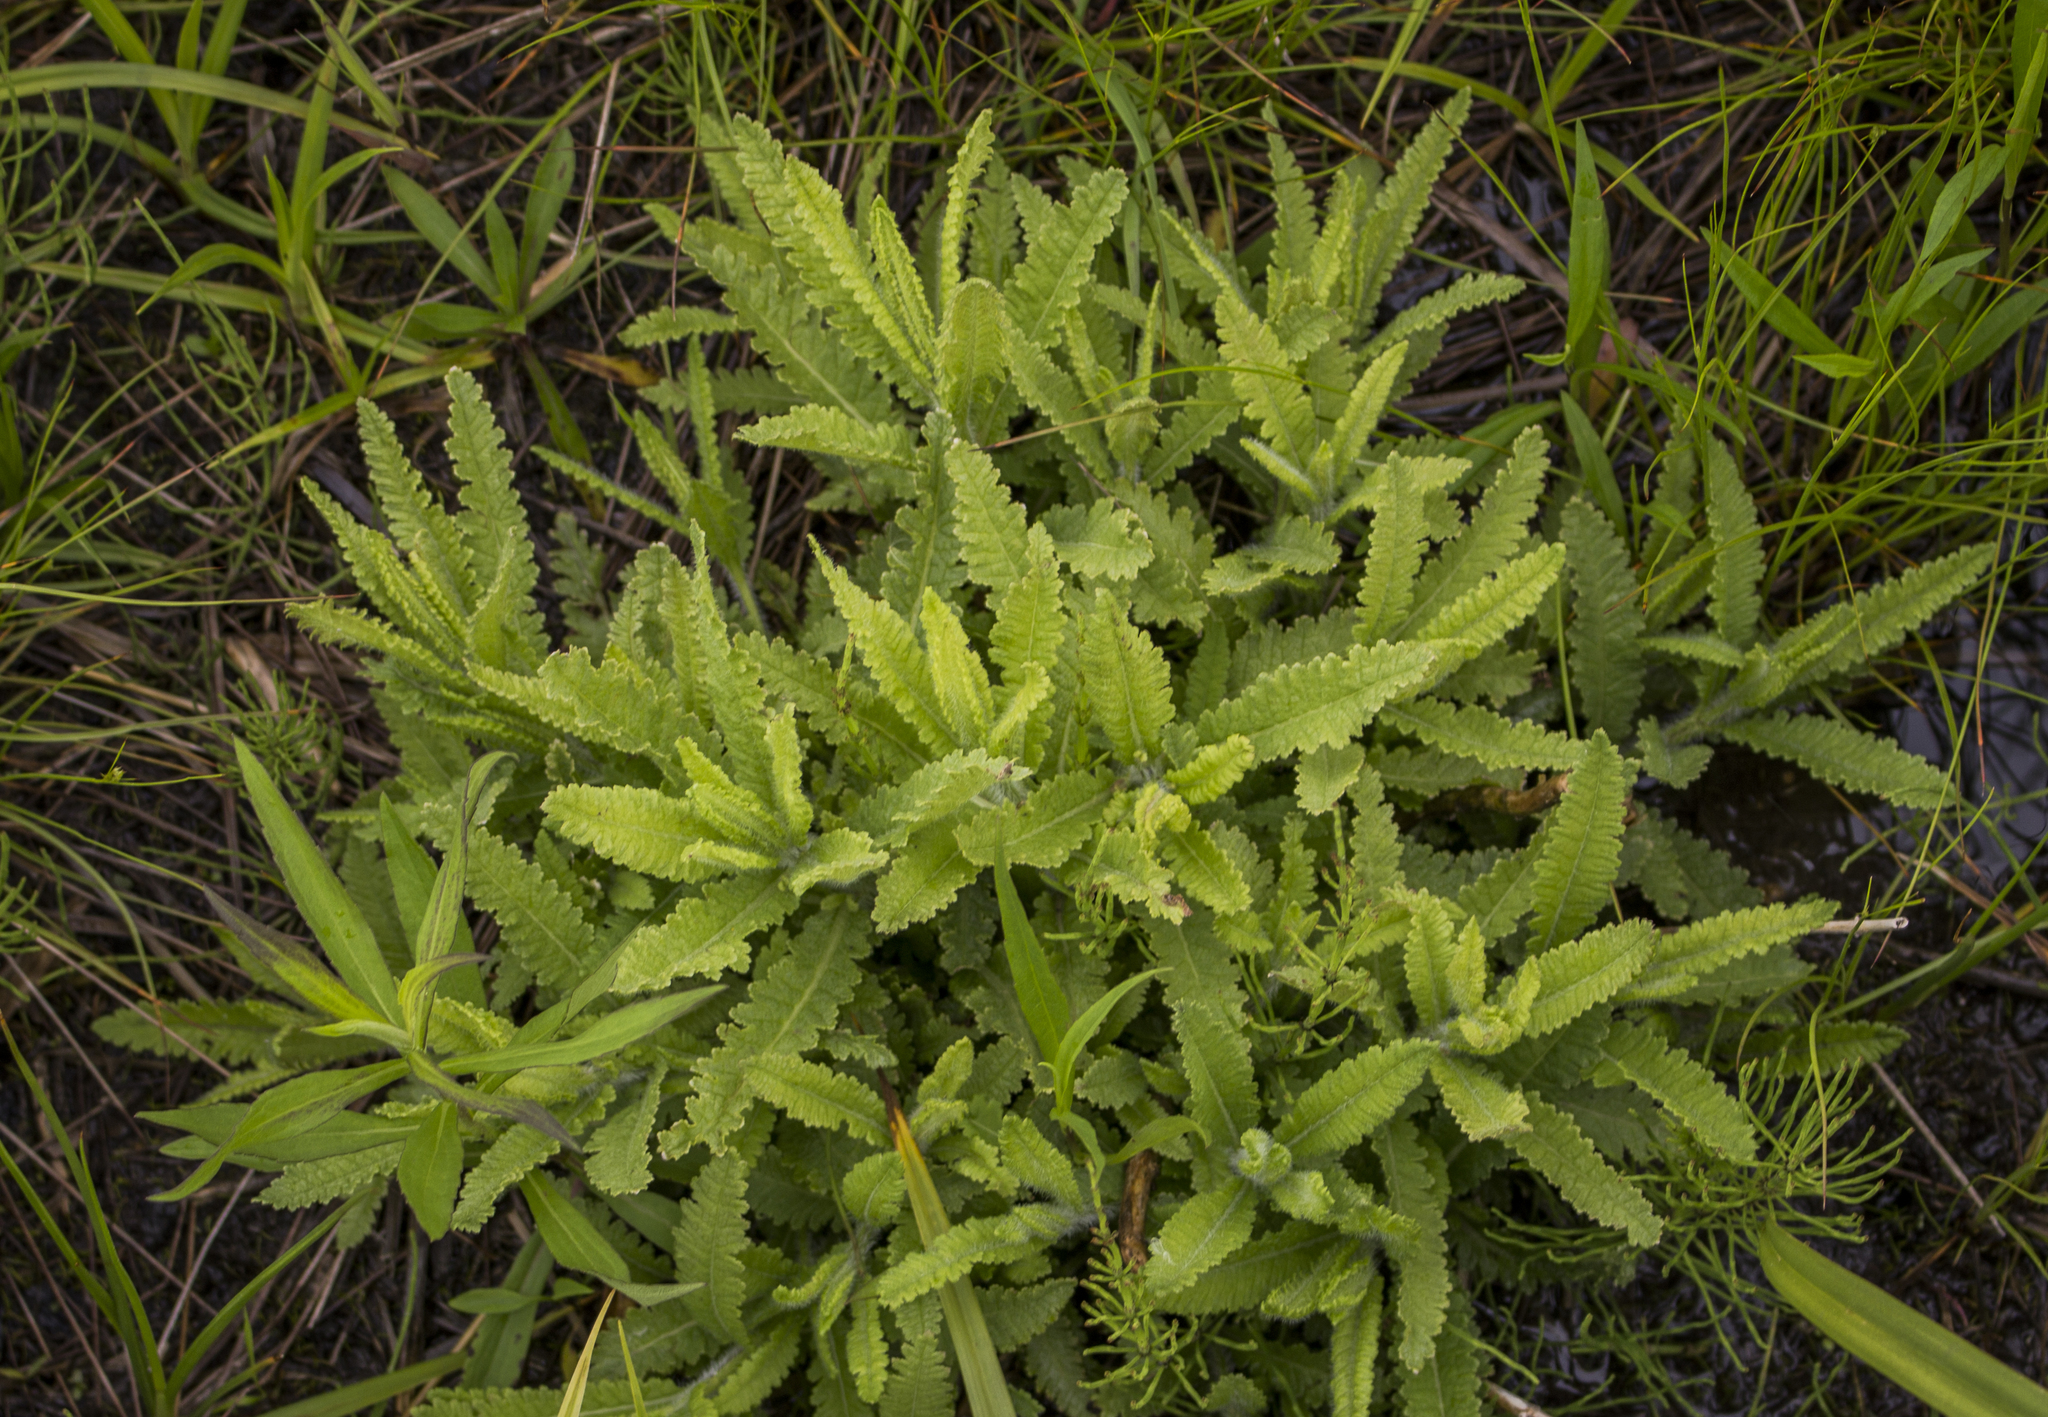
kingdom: Plantae
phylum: Tracheophyta
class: Magnoliopsida
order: Lamiales
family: Orobanchaceae
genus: Pedicularis
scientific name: Pedicularis lanceolata
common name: Swamp lousewort
